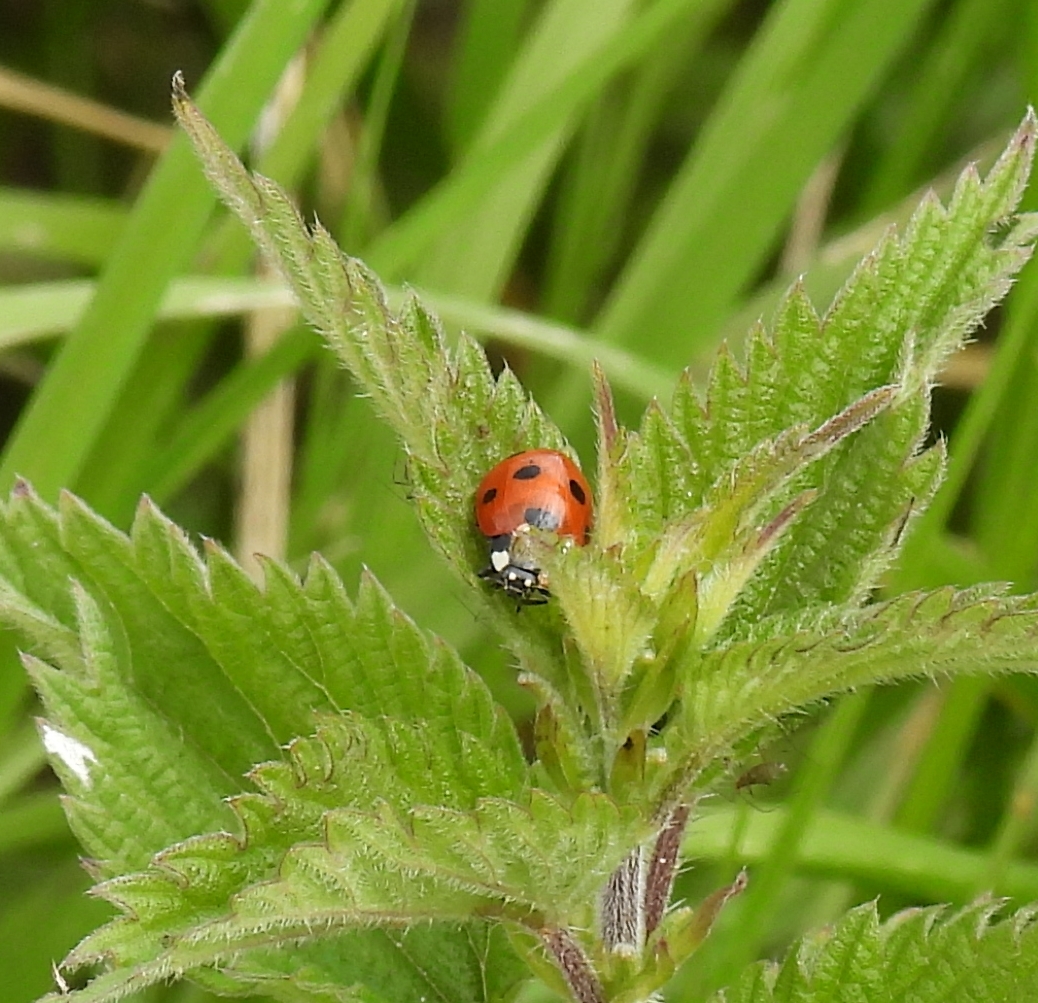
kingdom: Animalia
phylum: Arthropoda
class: Insecta
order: Coleoptera
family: Coccinellidae
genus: Coccinella
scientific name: Coccinella septempunctata
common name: Sevenspotted lady beetle
